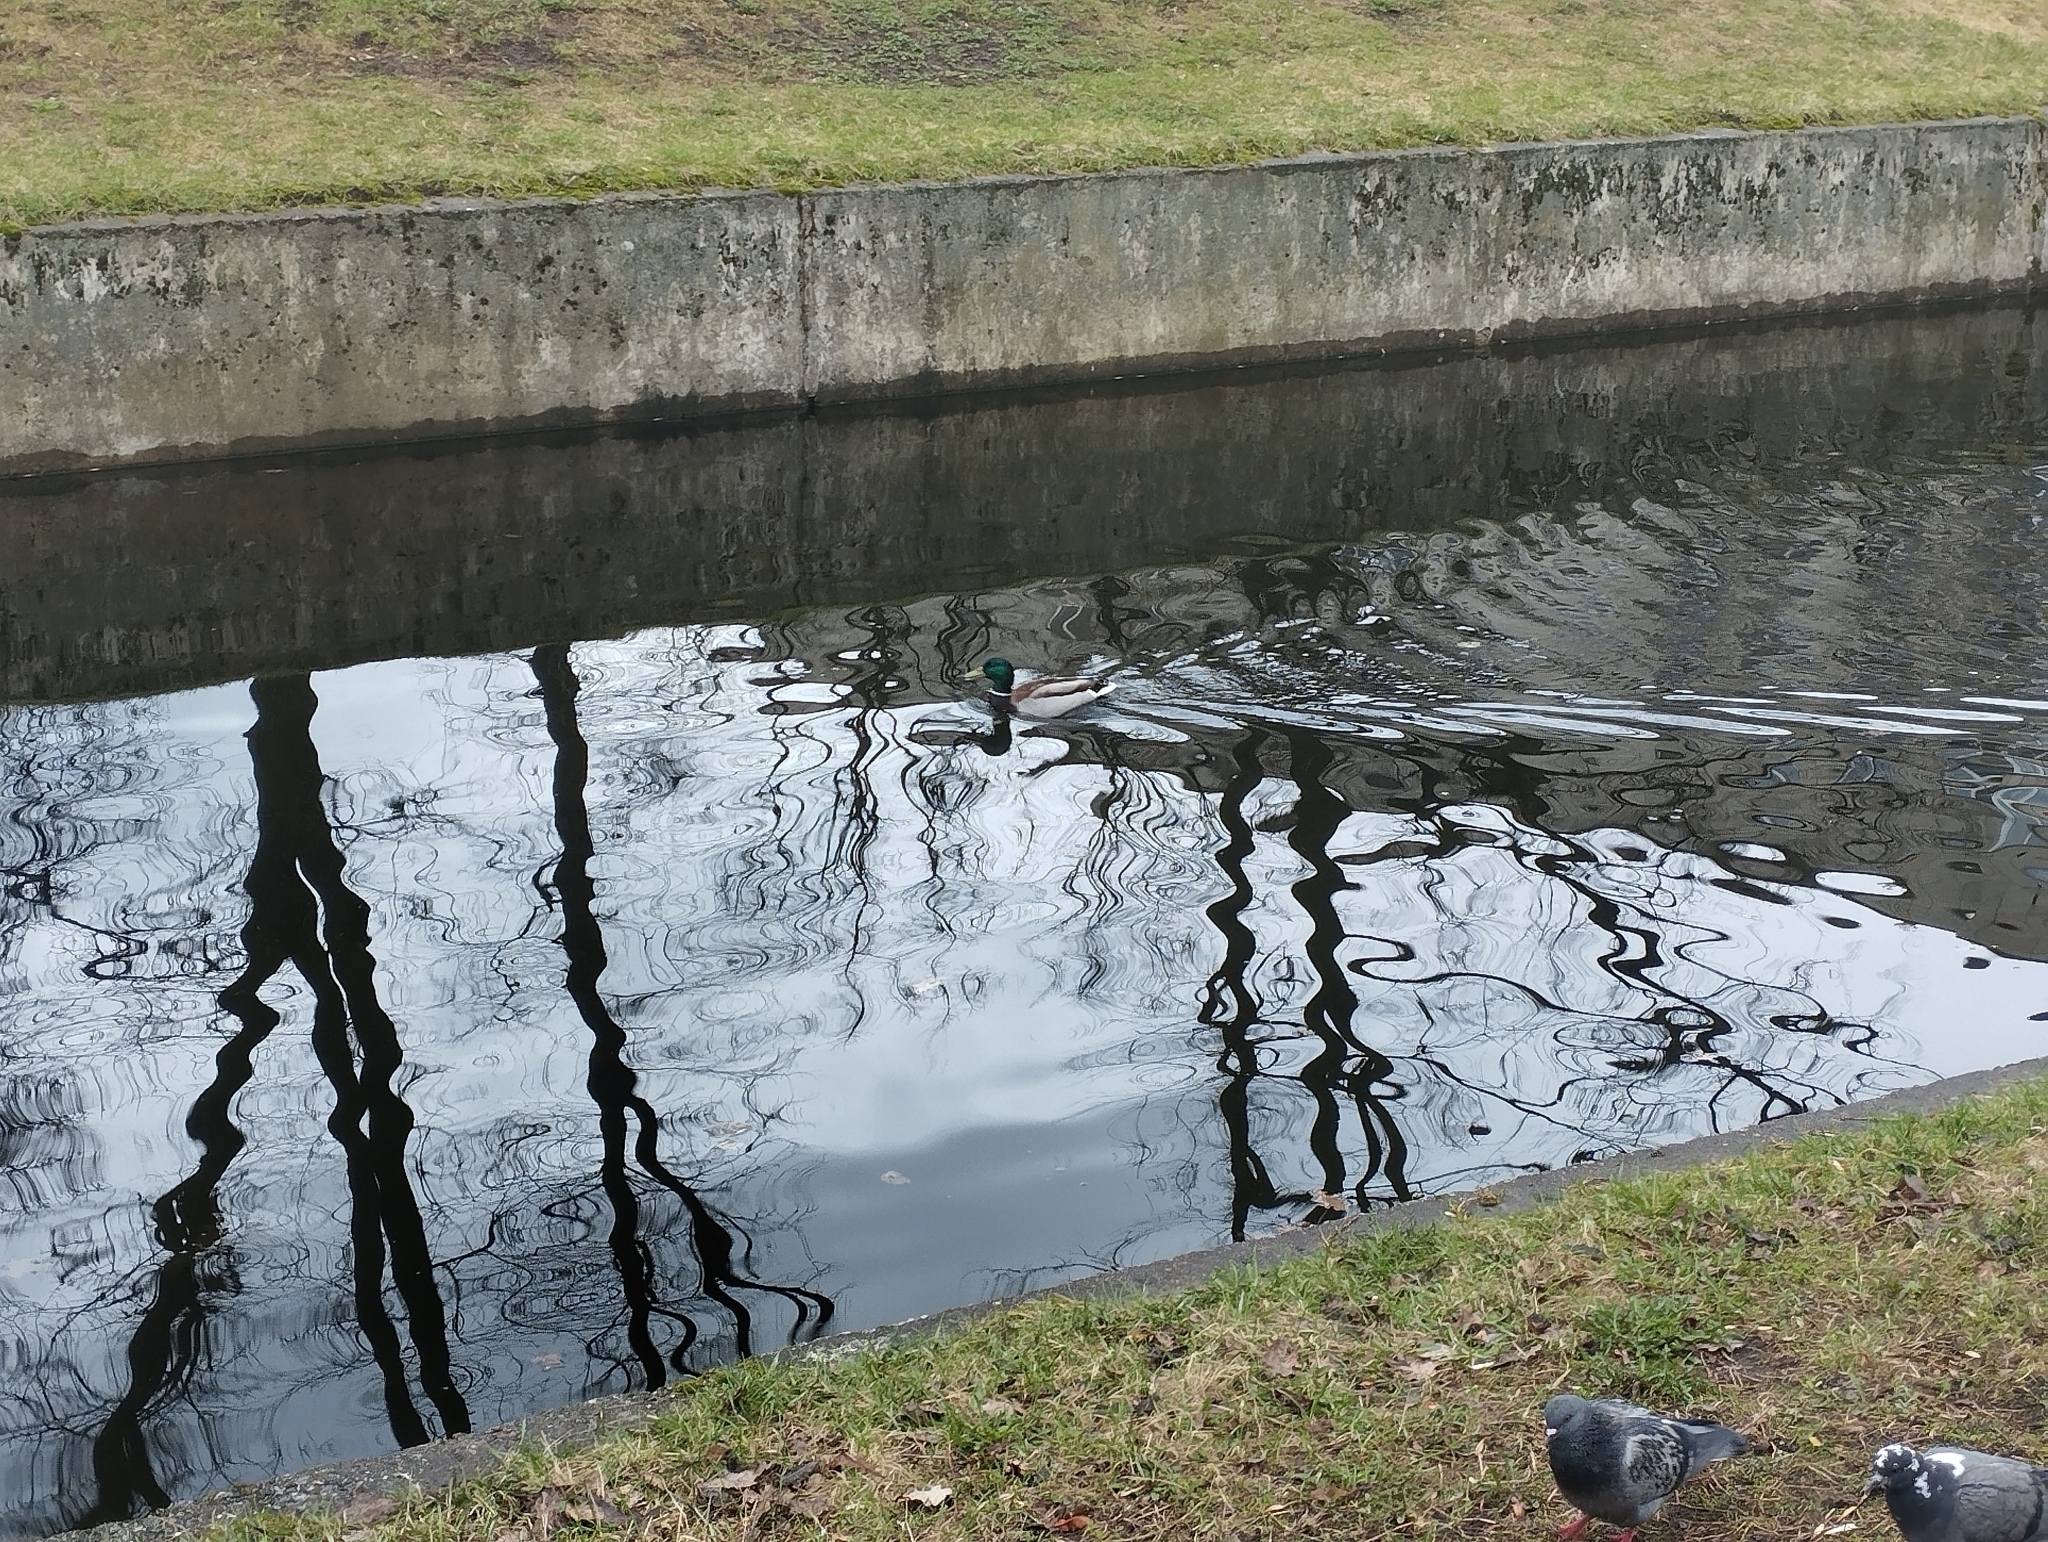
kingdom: Animalia
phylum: Chordata
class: Aves
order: Anseriformes
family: Anatidae
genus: Anas
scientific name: Anas platyrhynchos
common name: Mallard
